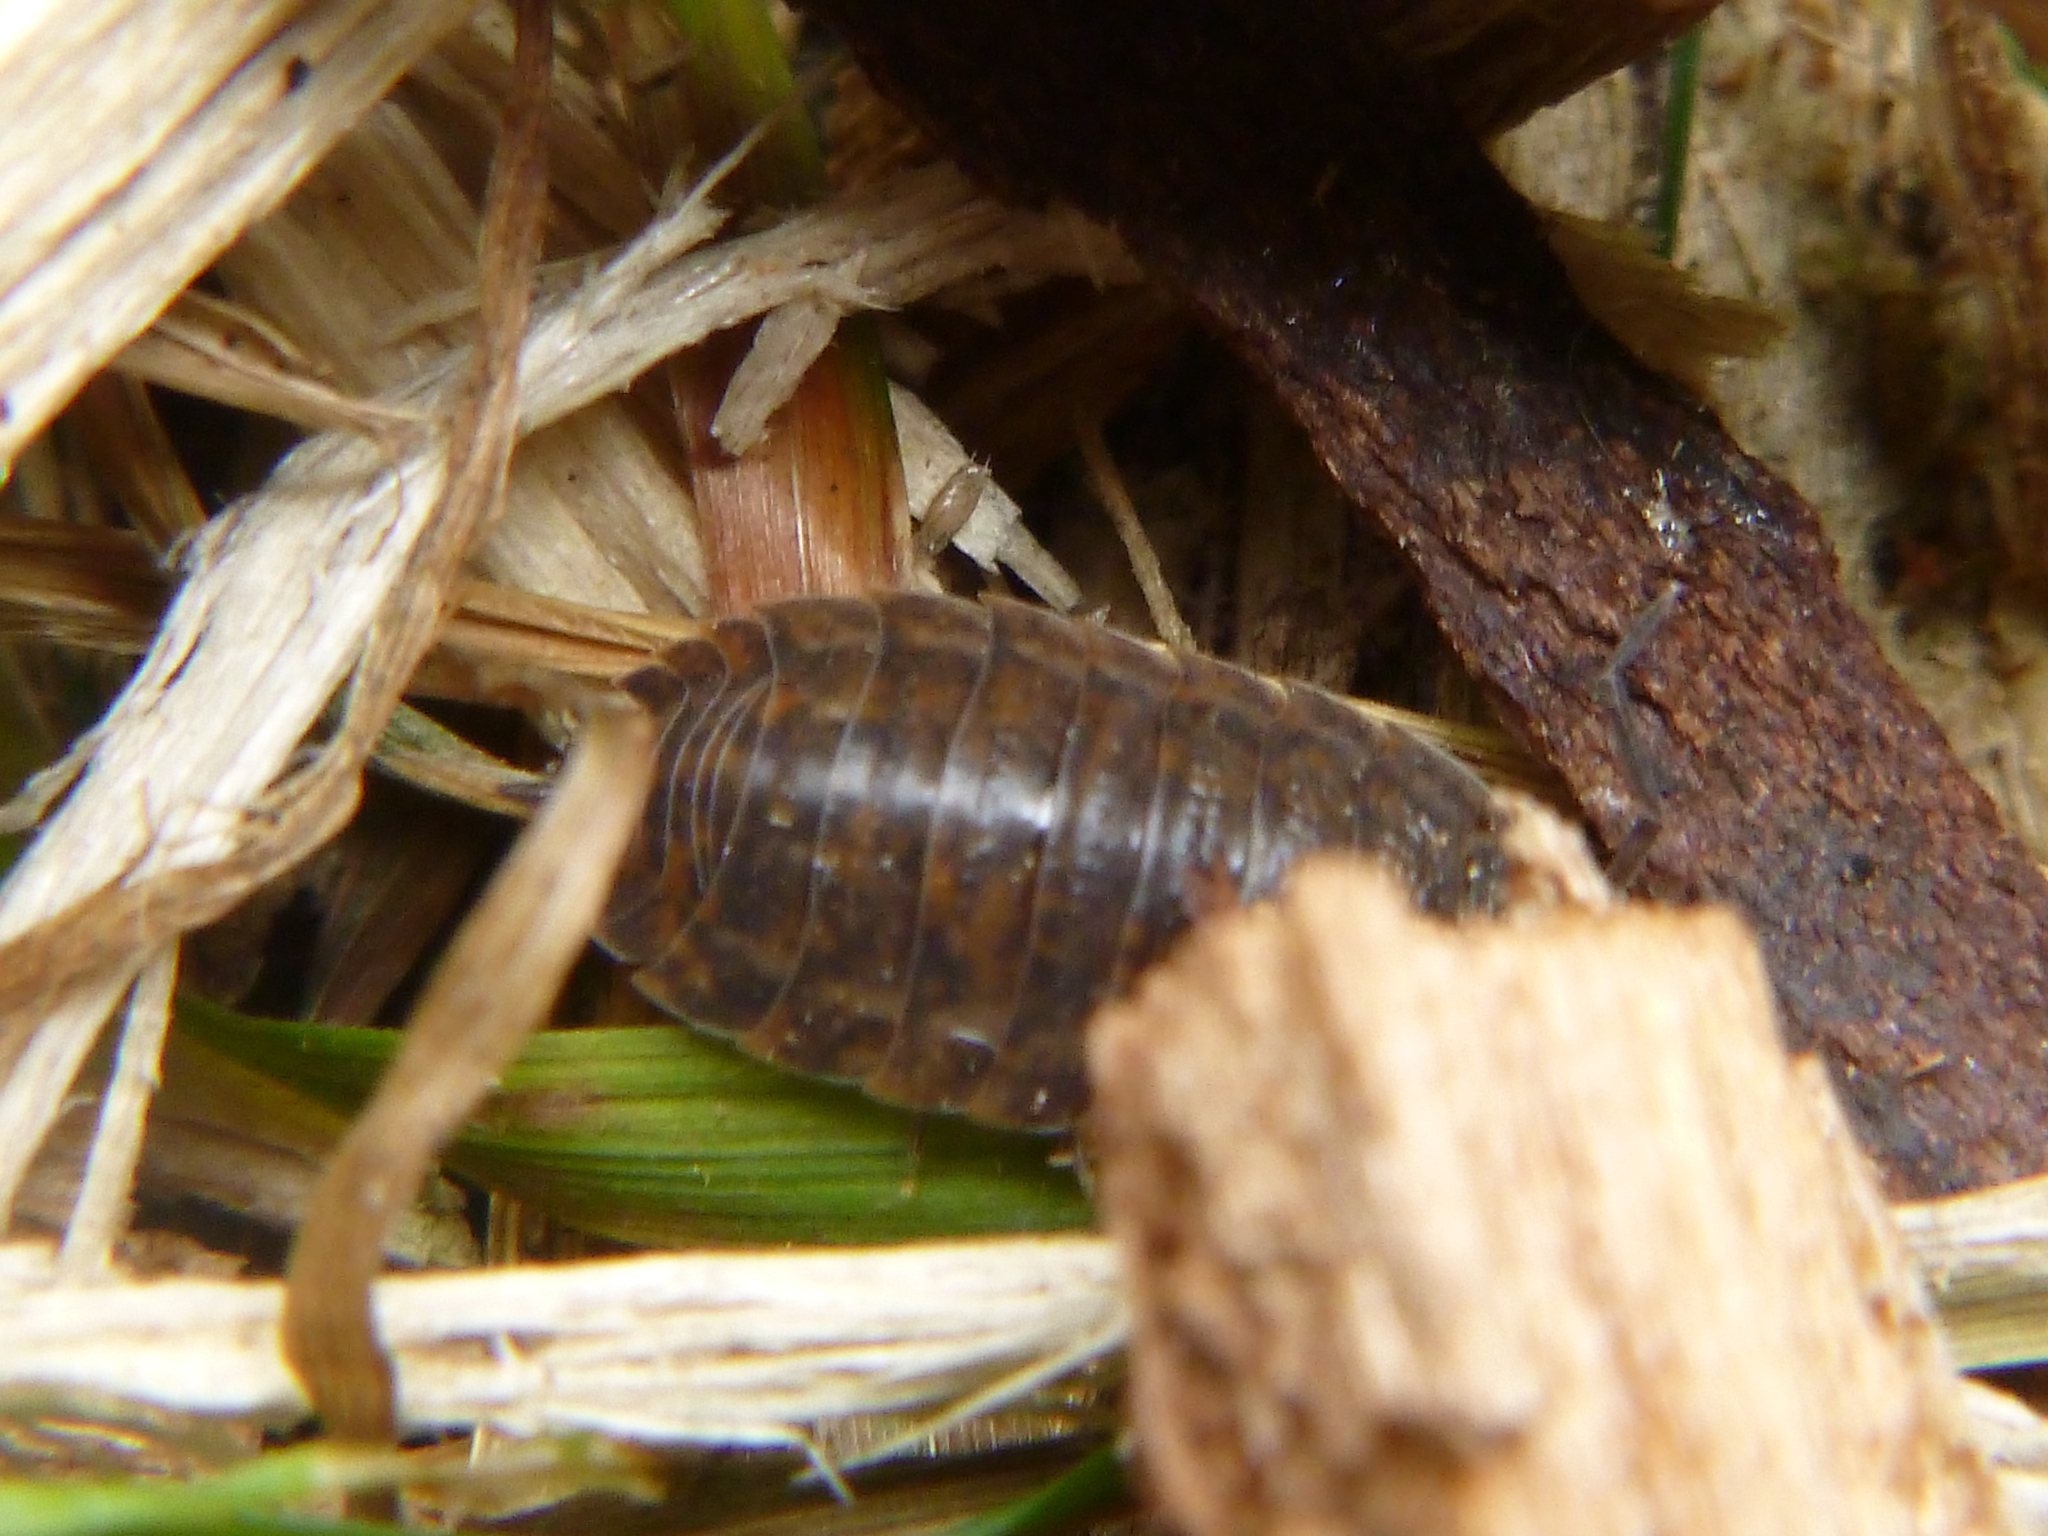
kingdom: Animalia
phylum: Arthropoda
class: Malacostraca
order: Isopoda
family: Trachelipodidae
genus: Trachelipus
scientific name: Trachelipus rathkii
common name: Isopod
